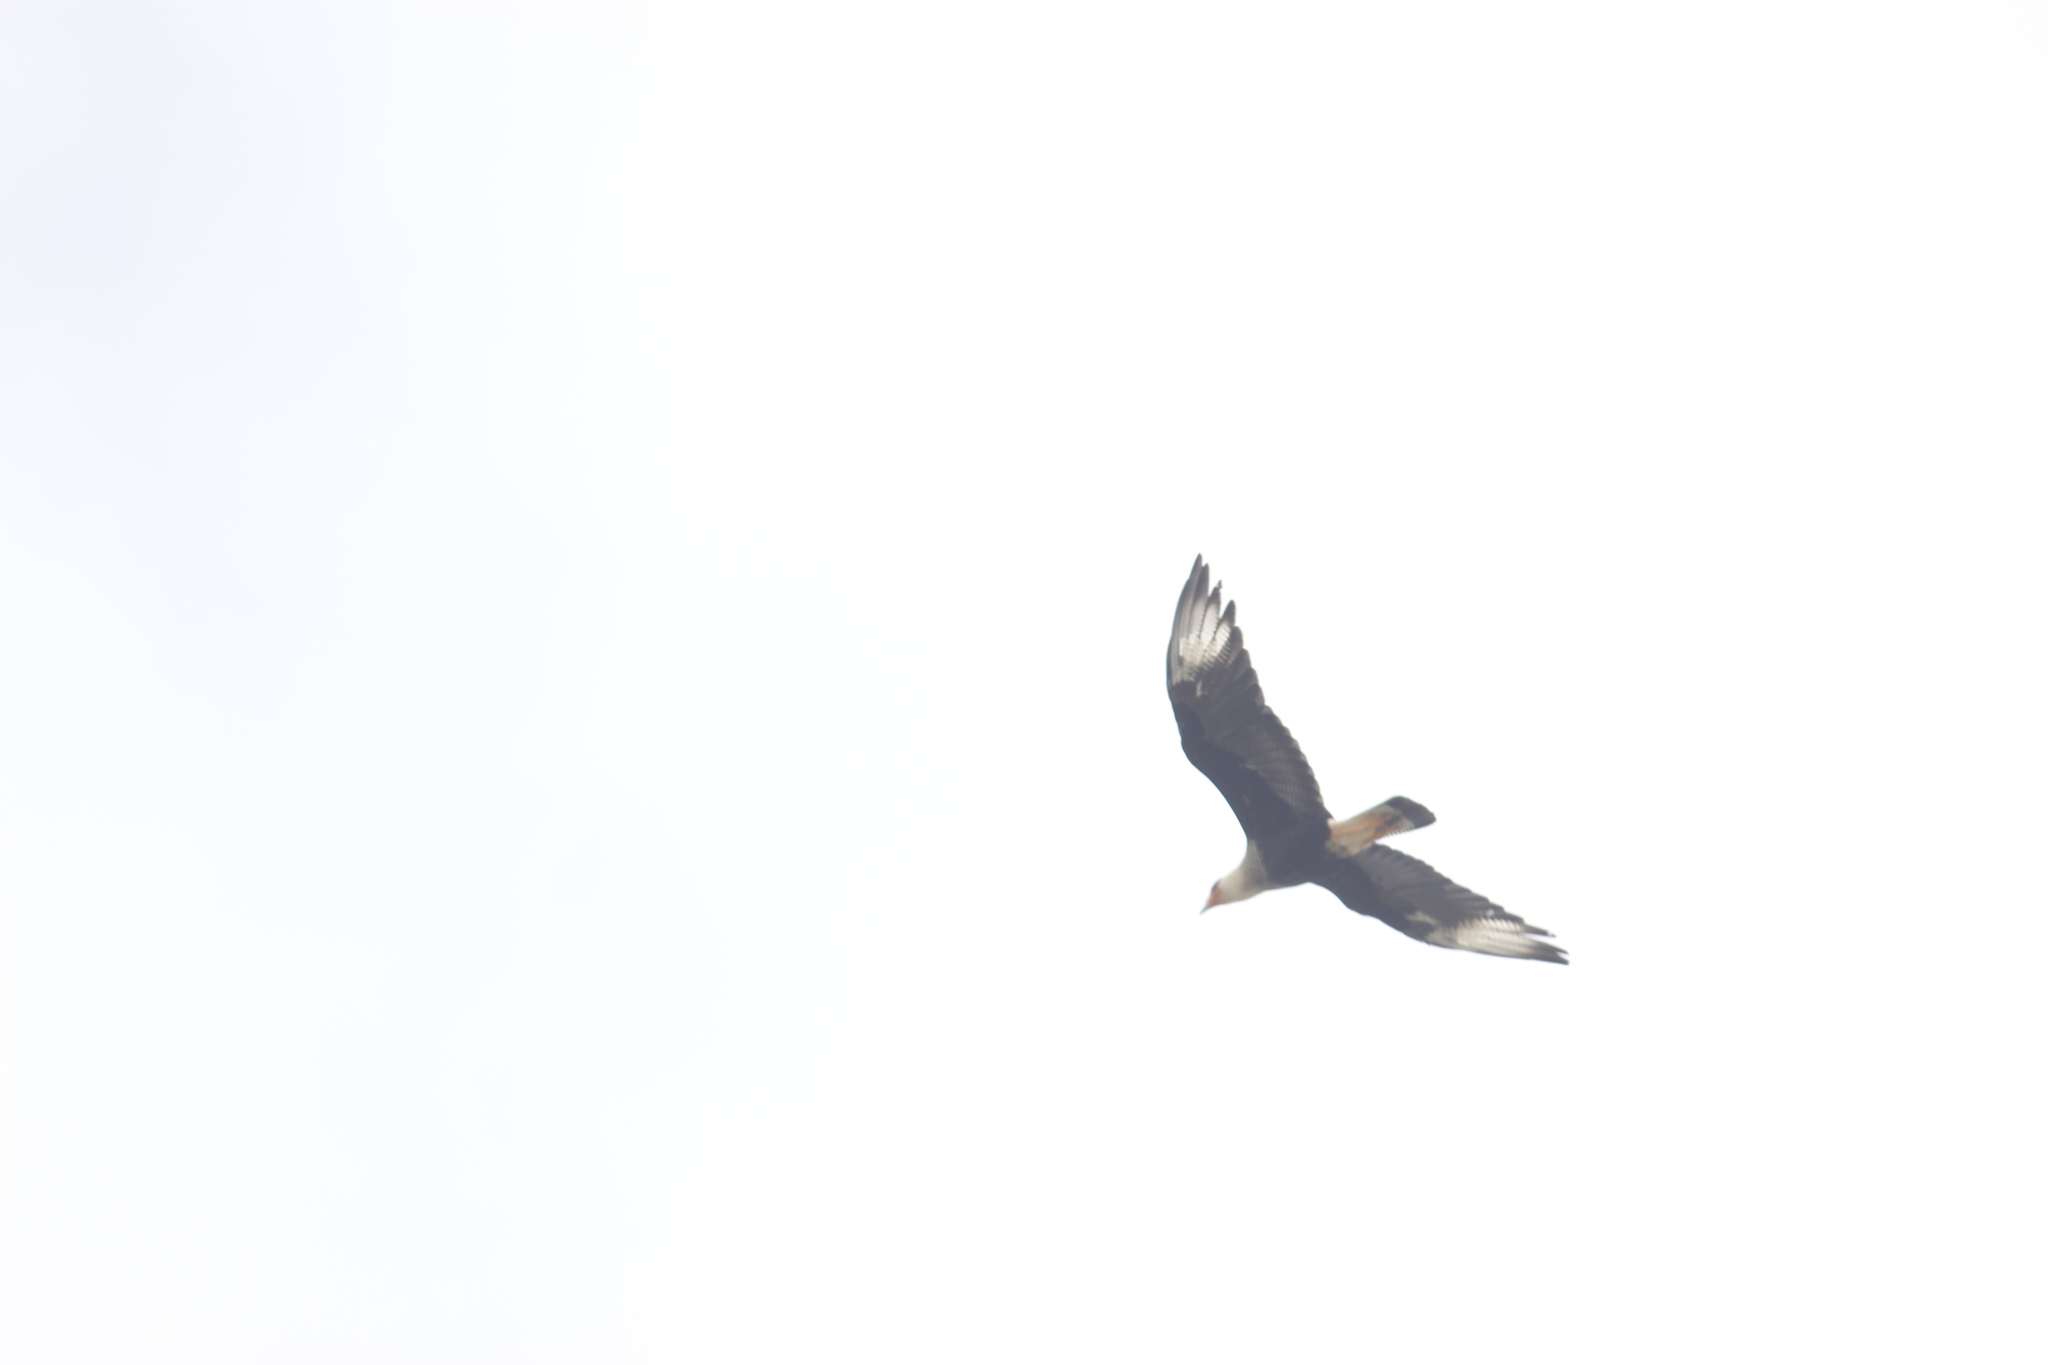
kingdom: Animalia
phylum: Chordata
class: Aves
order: Falconiformes
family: Falconidae
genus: Caracara
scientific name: Caracara plancus
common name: Southern caracara
